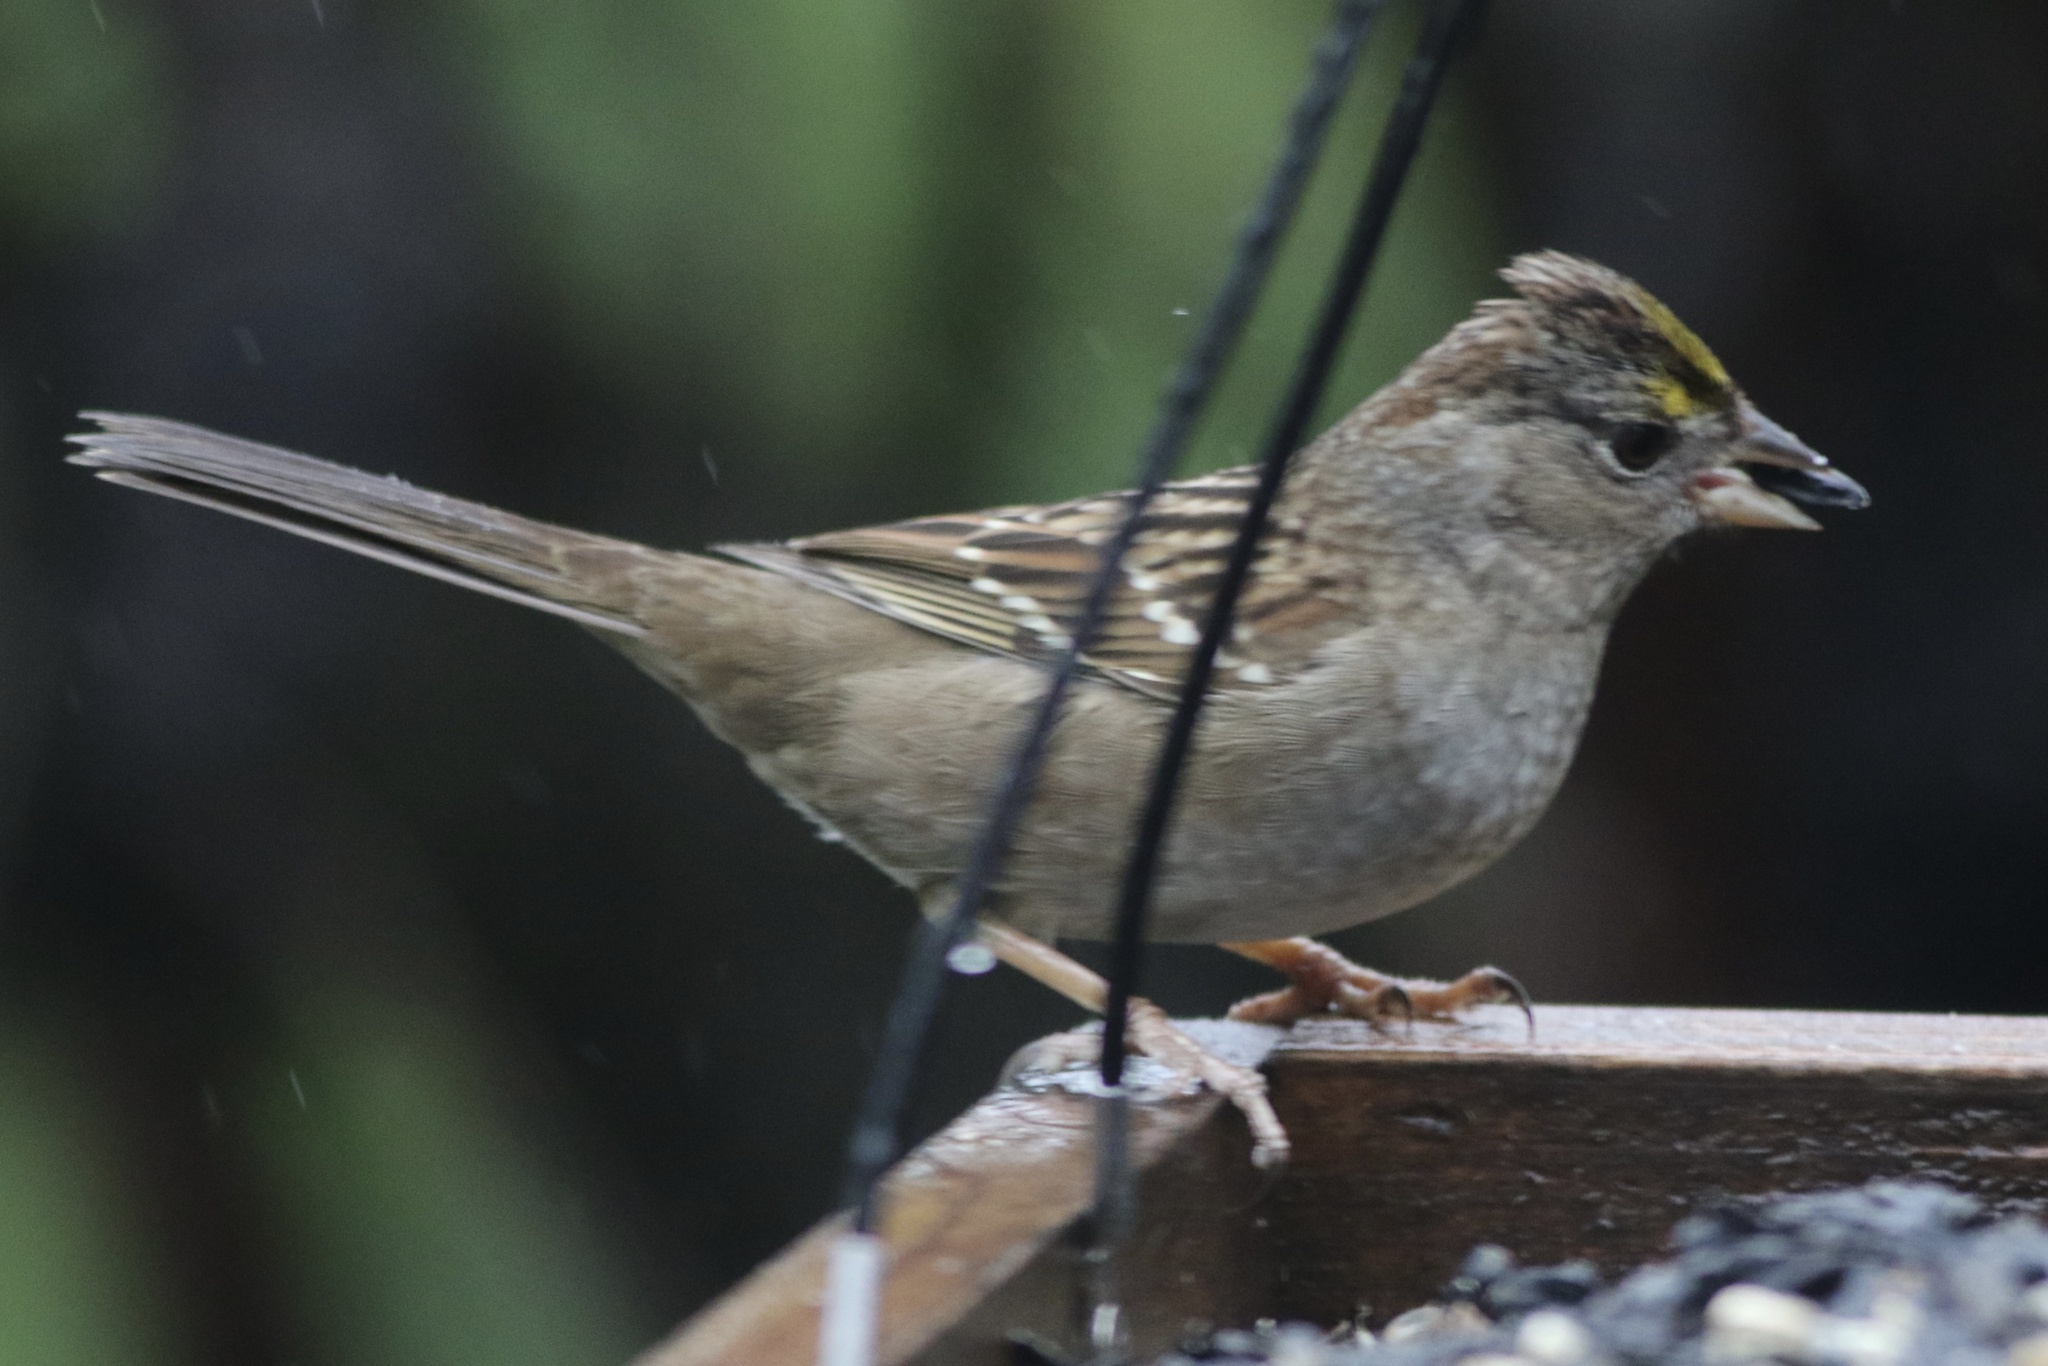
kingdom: Animalia
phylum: Chordata
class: Aves
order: Passeriformes
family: Passerellidae
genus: Zonotrichia
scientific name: Zonotrichia atricapilla
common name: Golden-crowned sparrow
